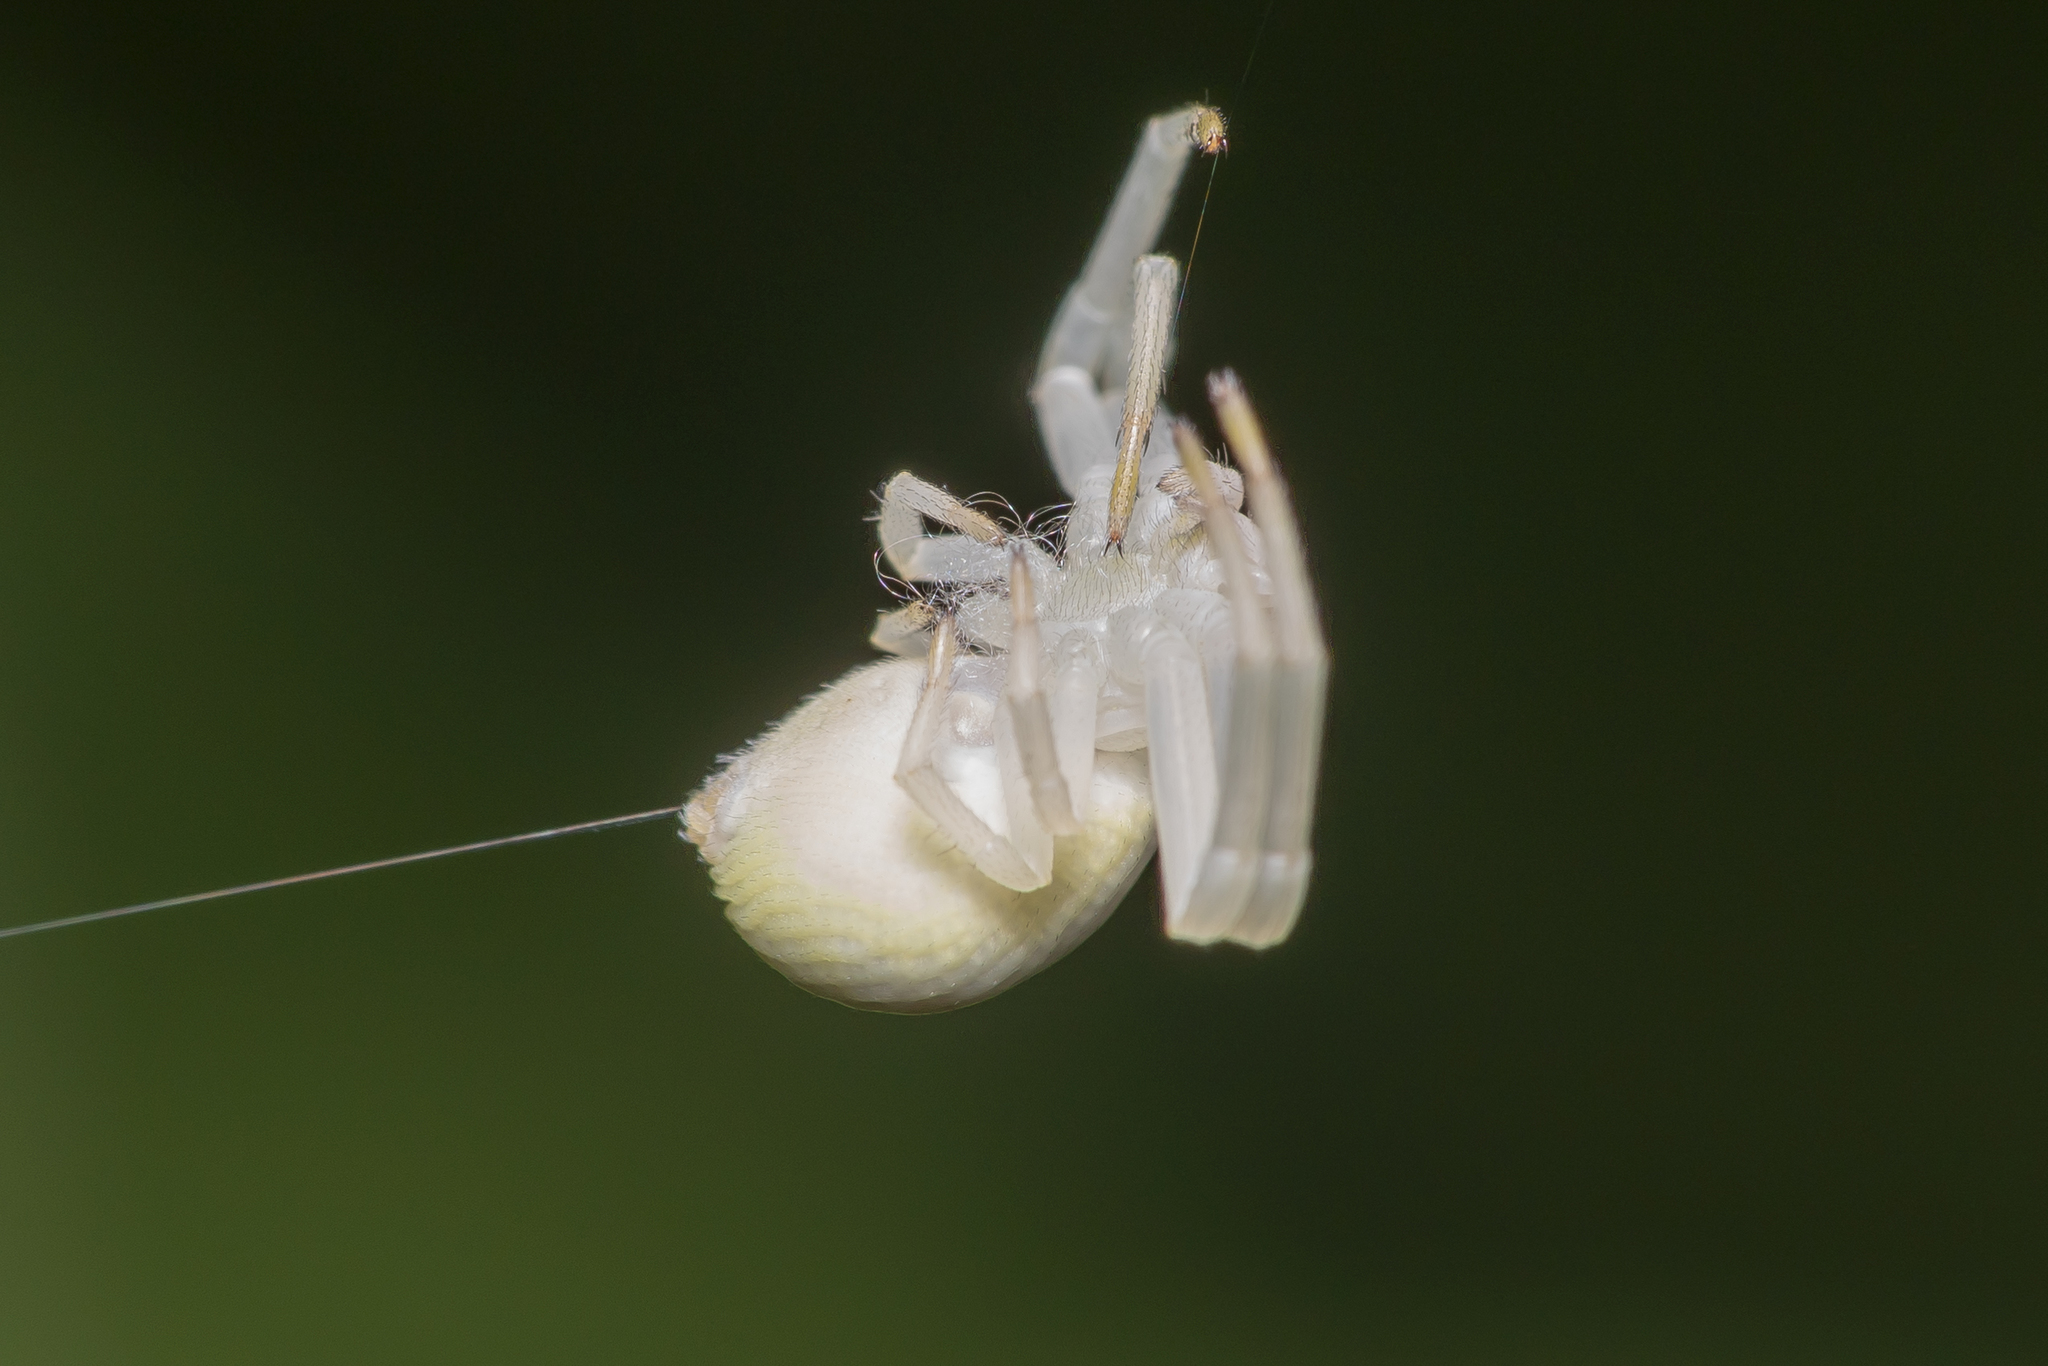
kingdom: Animalia
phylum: Arthropoda
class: Arachnida
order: Araneae
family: Thomisidae
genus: Misumena
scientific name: Misumena vatia
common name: Goldenrod crab spider
